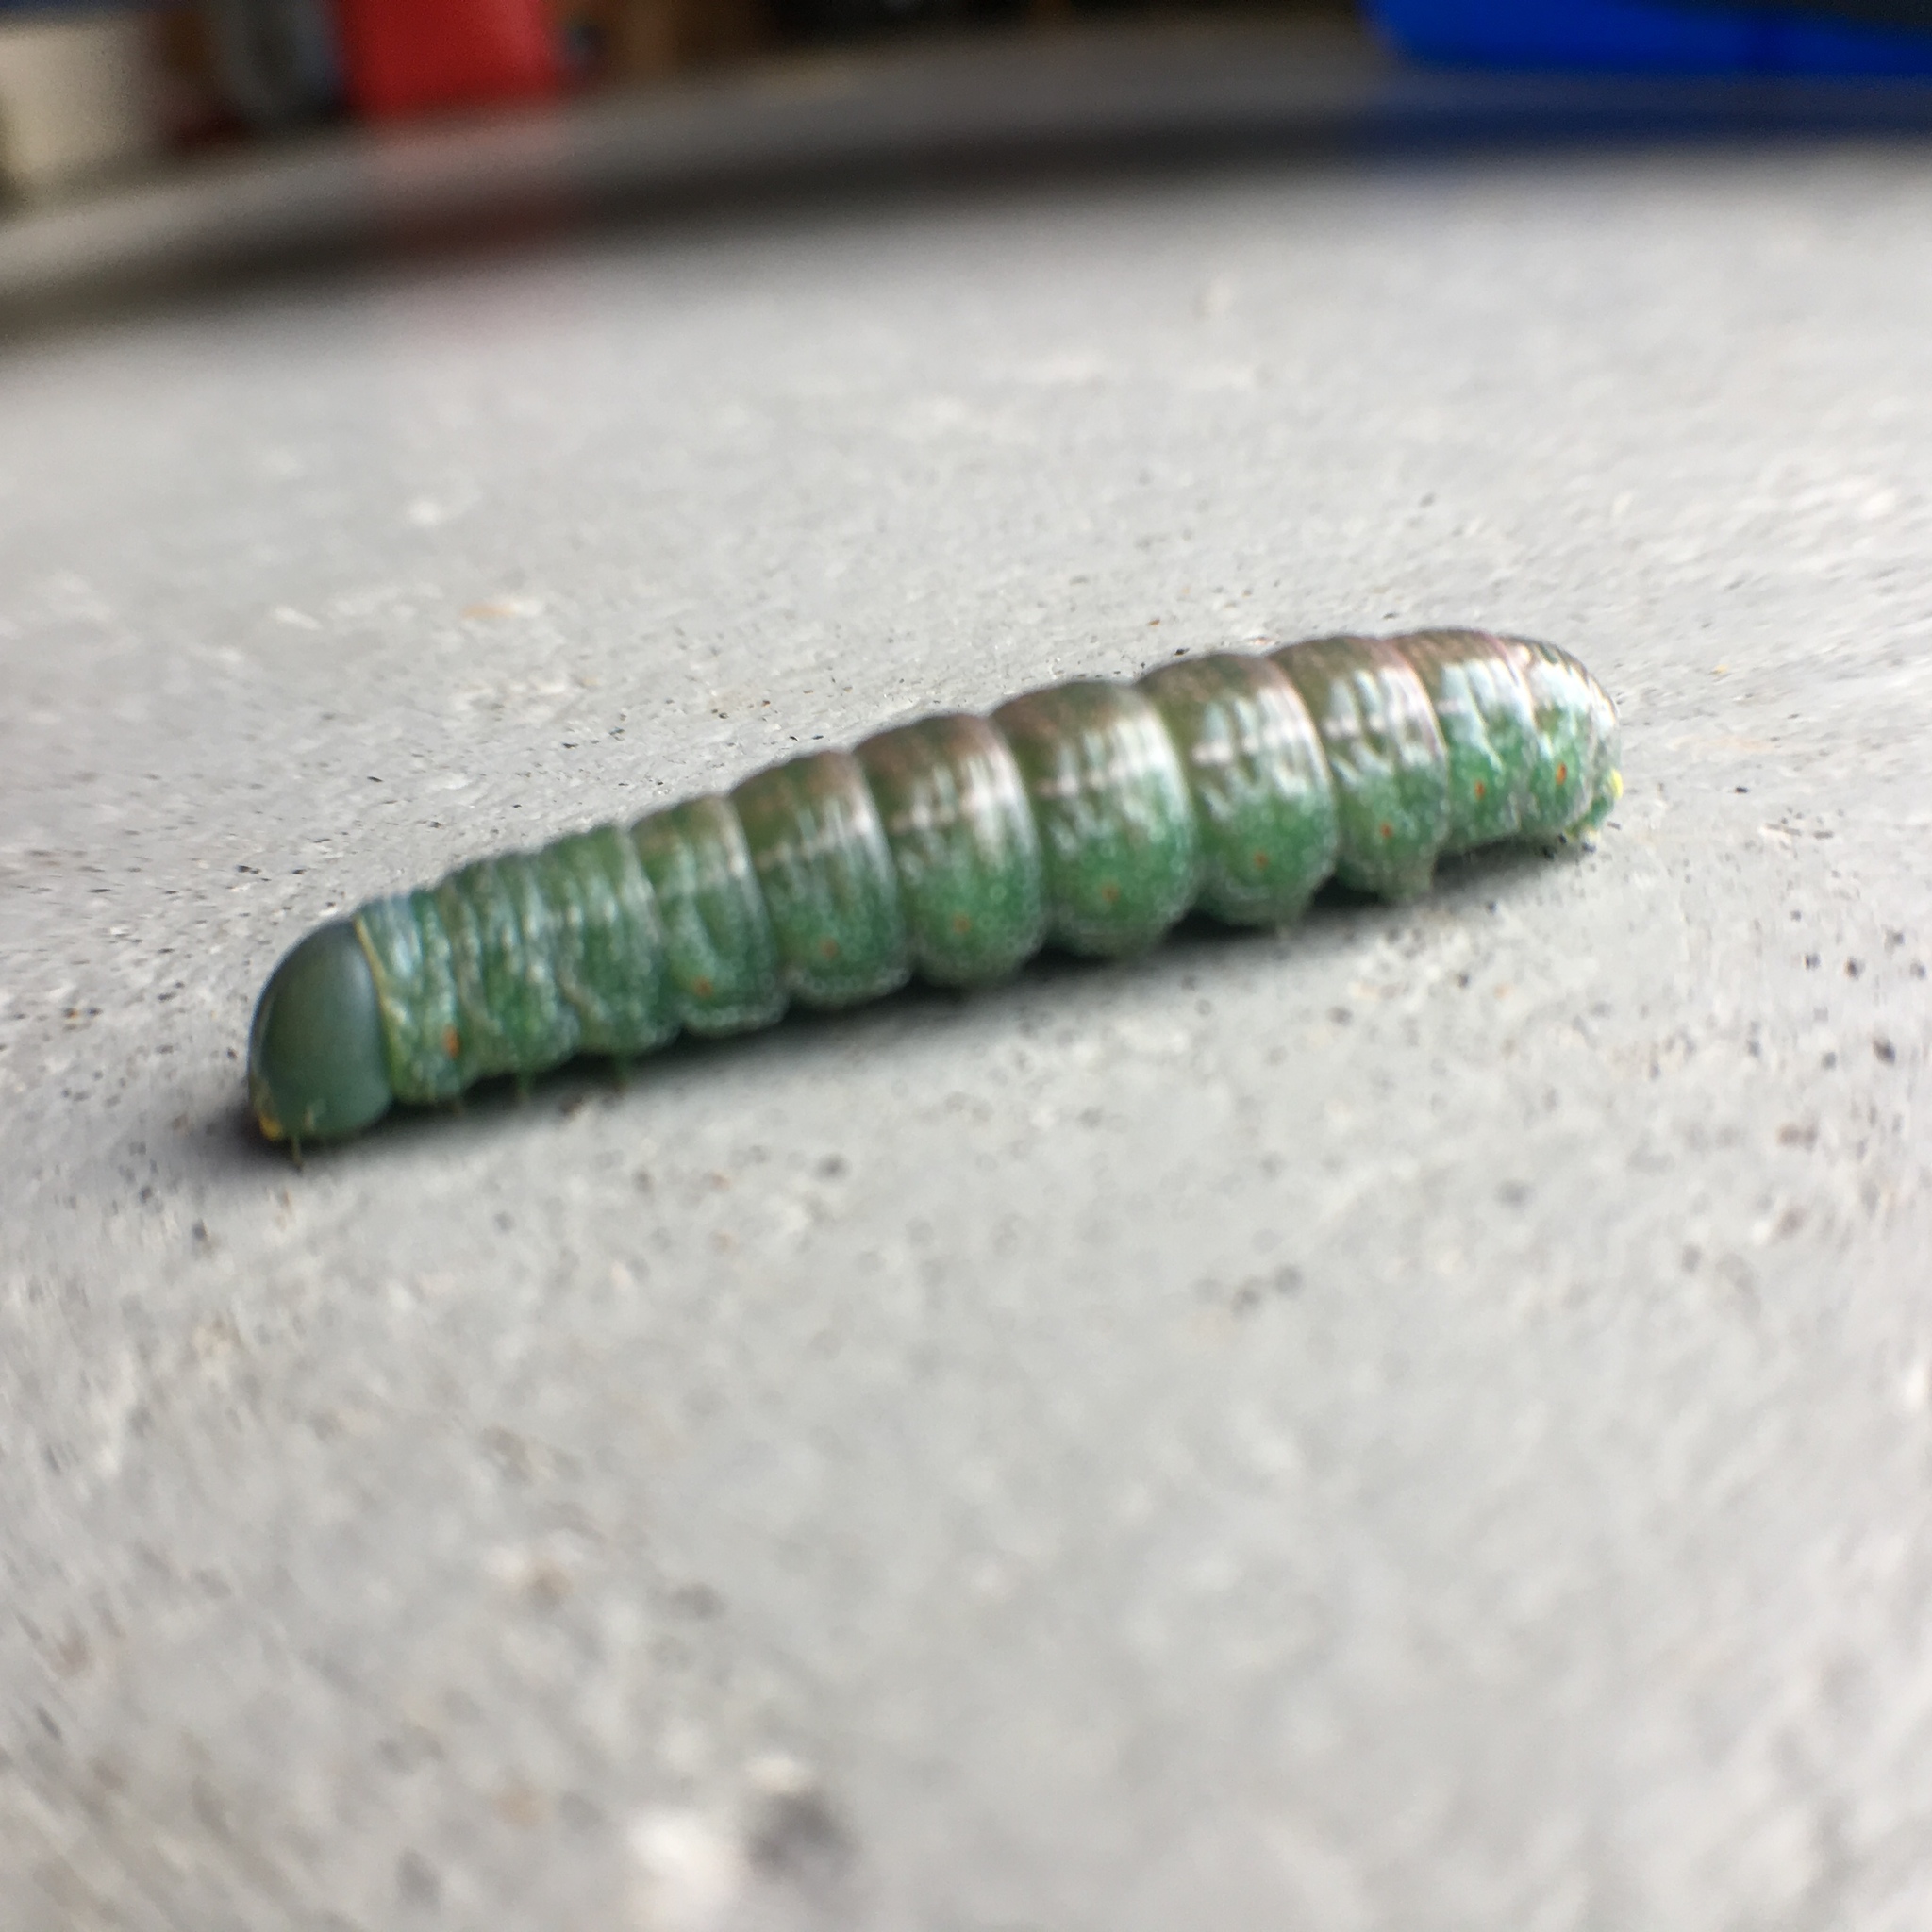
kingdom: Animalia
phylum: Arthropoda
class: Insecta
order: Lepidoptera
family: Notodontidae
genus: Nadata
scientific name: Nadata gibbosa
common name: White-dotted prominent
